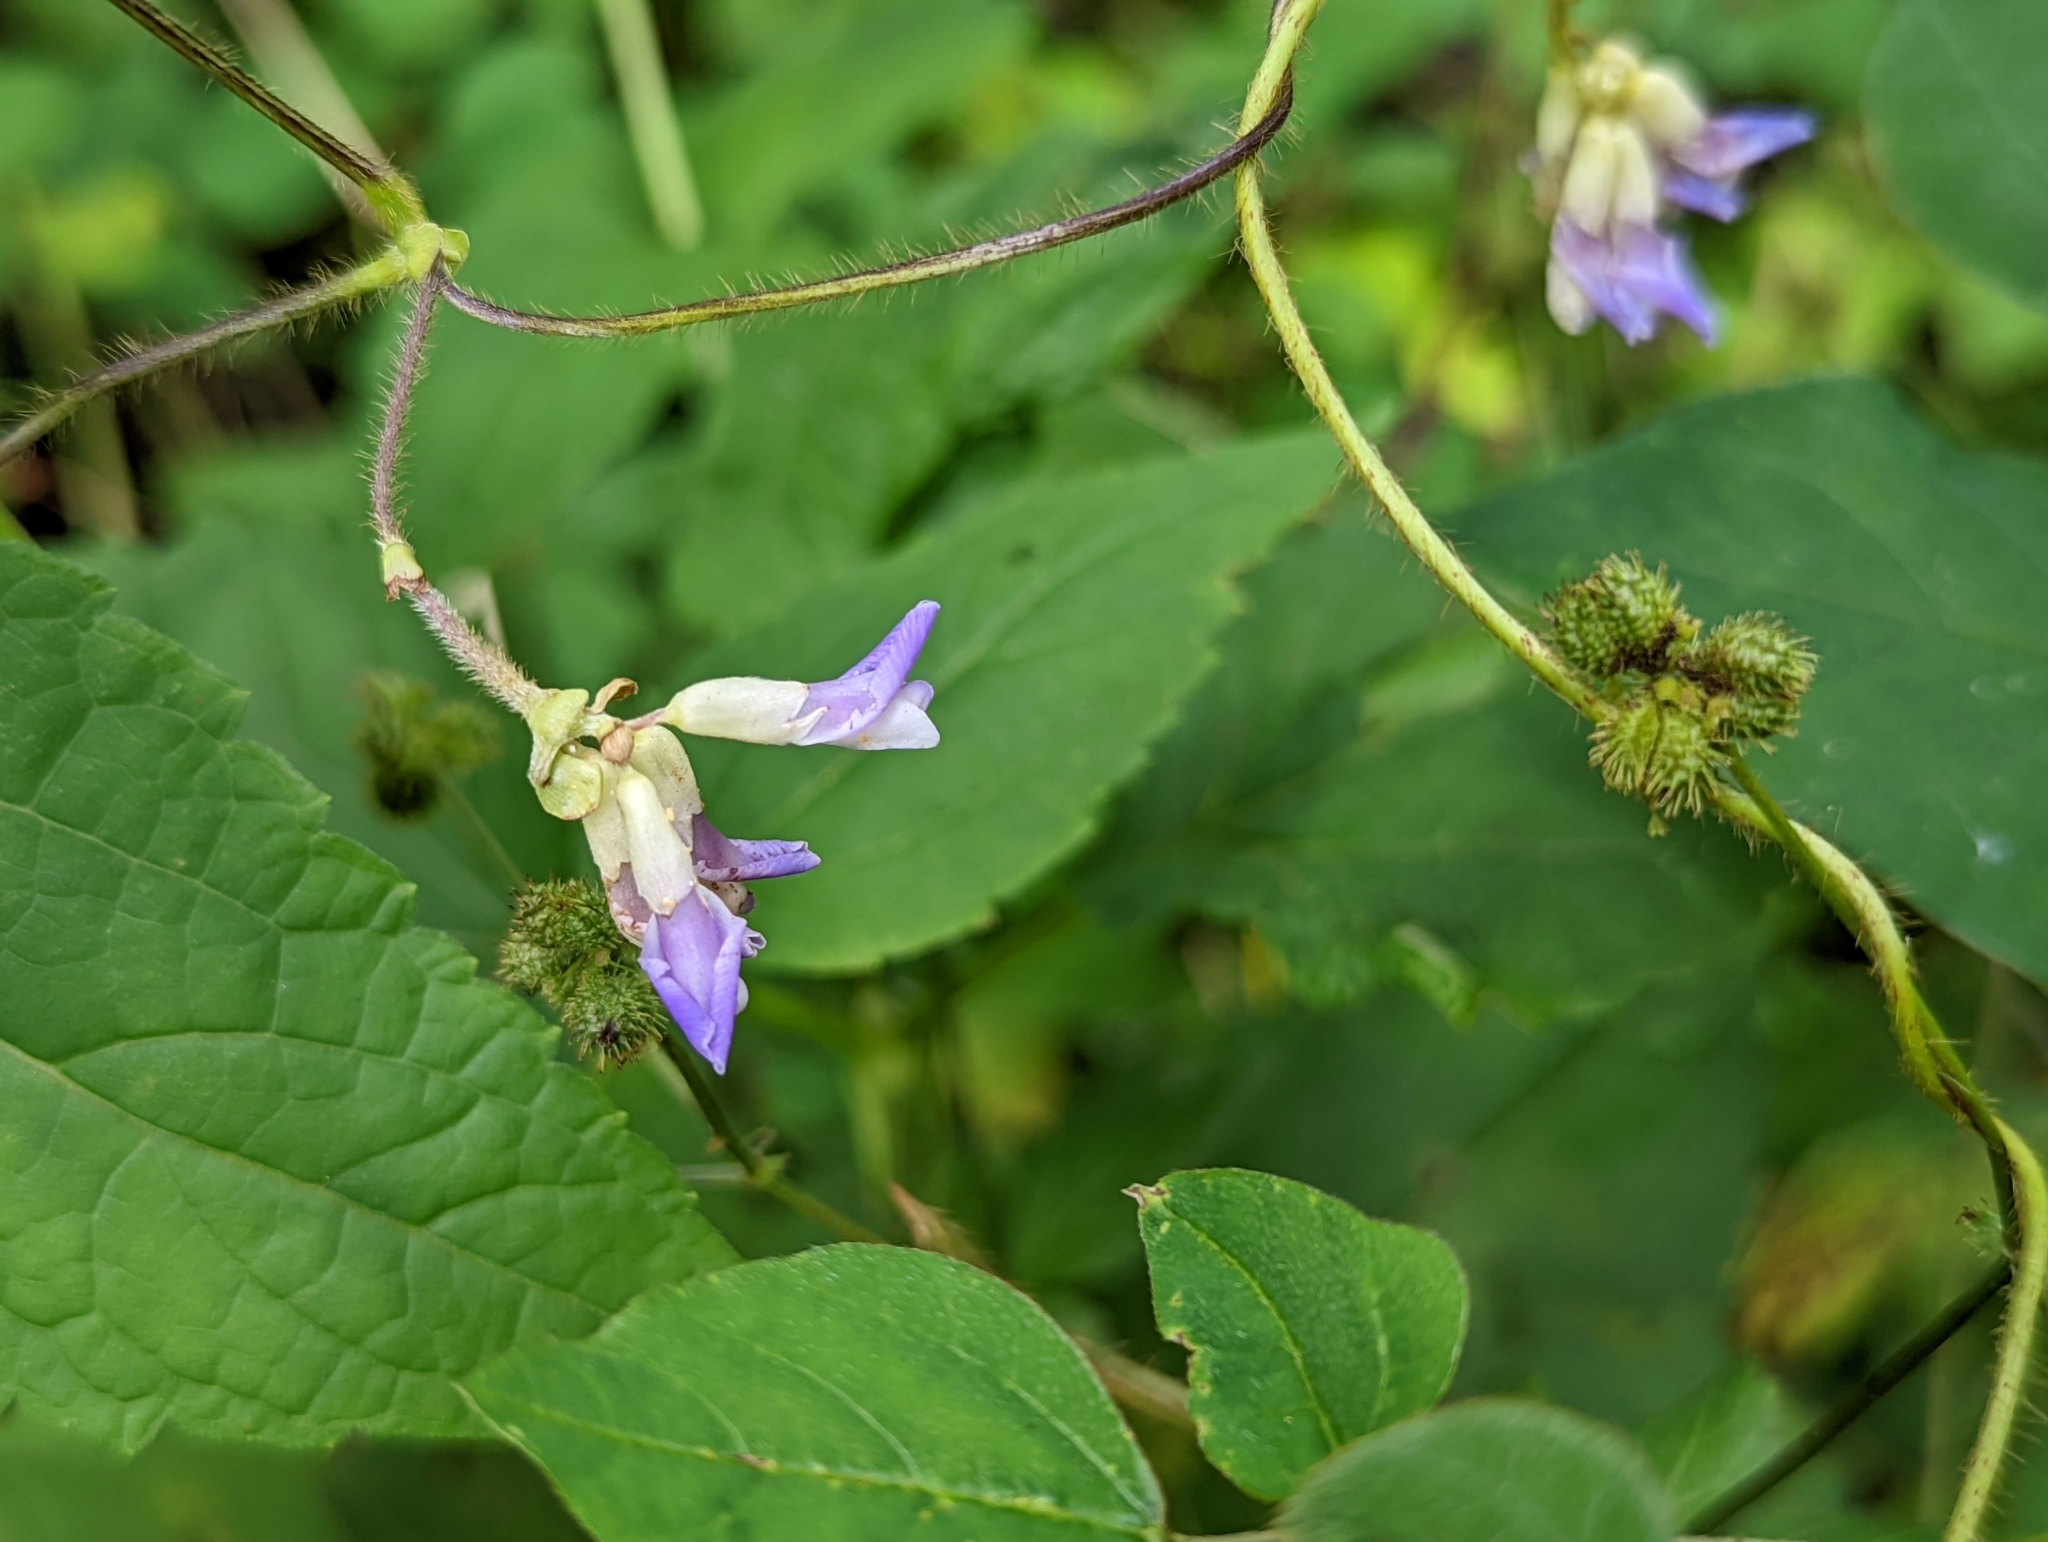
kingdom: Plantae
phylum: Tracheophyta
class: Magnoliopsida
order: Fabales
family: Fabaceae
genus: Amphicarpaea
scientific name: Amphicarpaea bracteata
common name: American hog peanut
